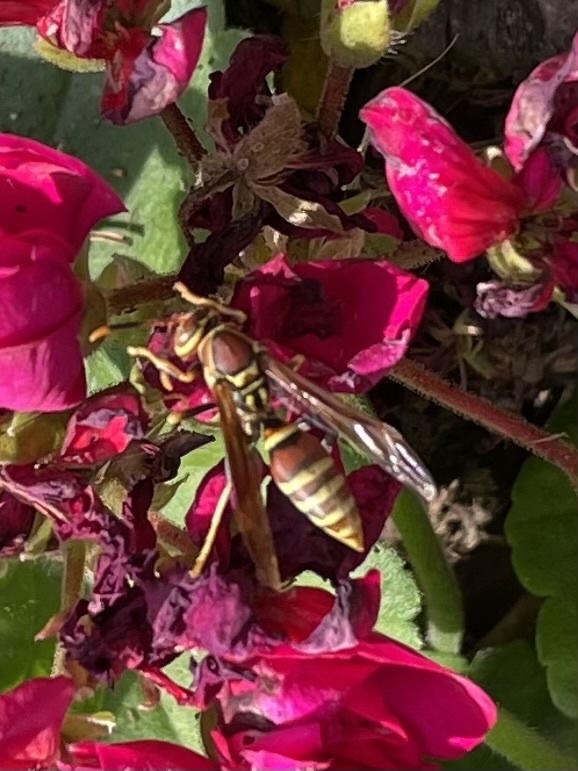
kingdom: Animalia
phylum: Arthropoda
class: Insecta
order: Hymenoptera
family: Eumenidae
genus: Polistes
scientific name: Polistes exclamans
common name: Paper wasp
